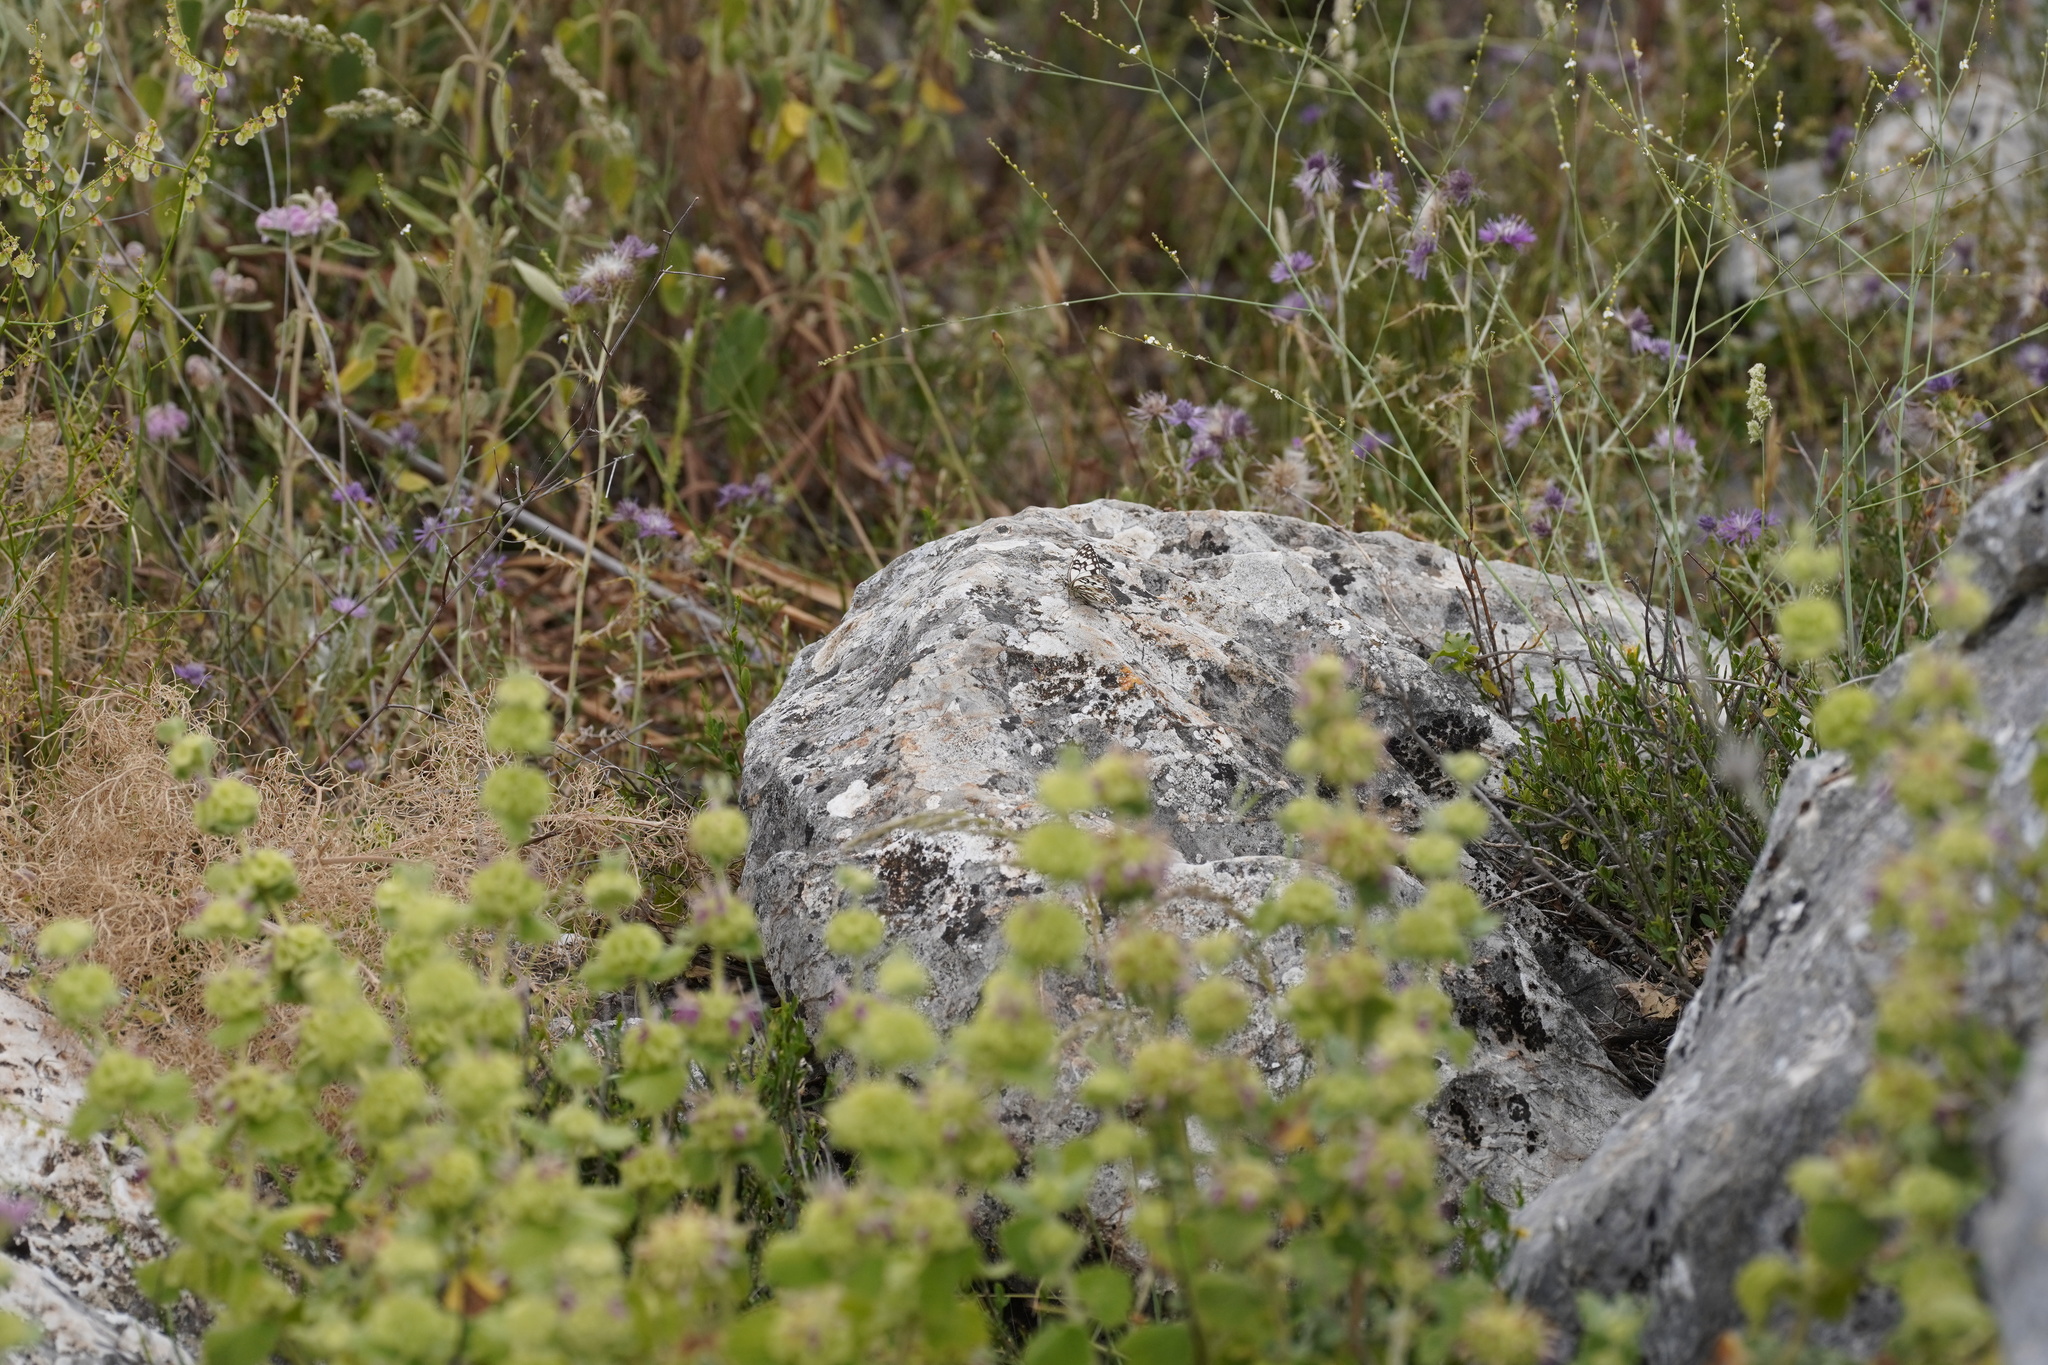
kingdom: Animalia
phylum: Arthropoda
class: Insecta
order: Lepidoptera
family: Nymphalidae
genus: Melanargia
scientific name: Melanargia ines
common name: Spanish marbled white
